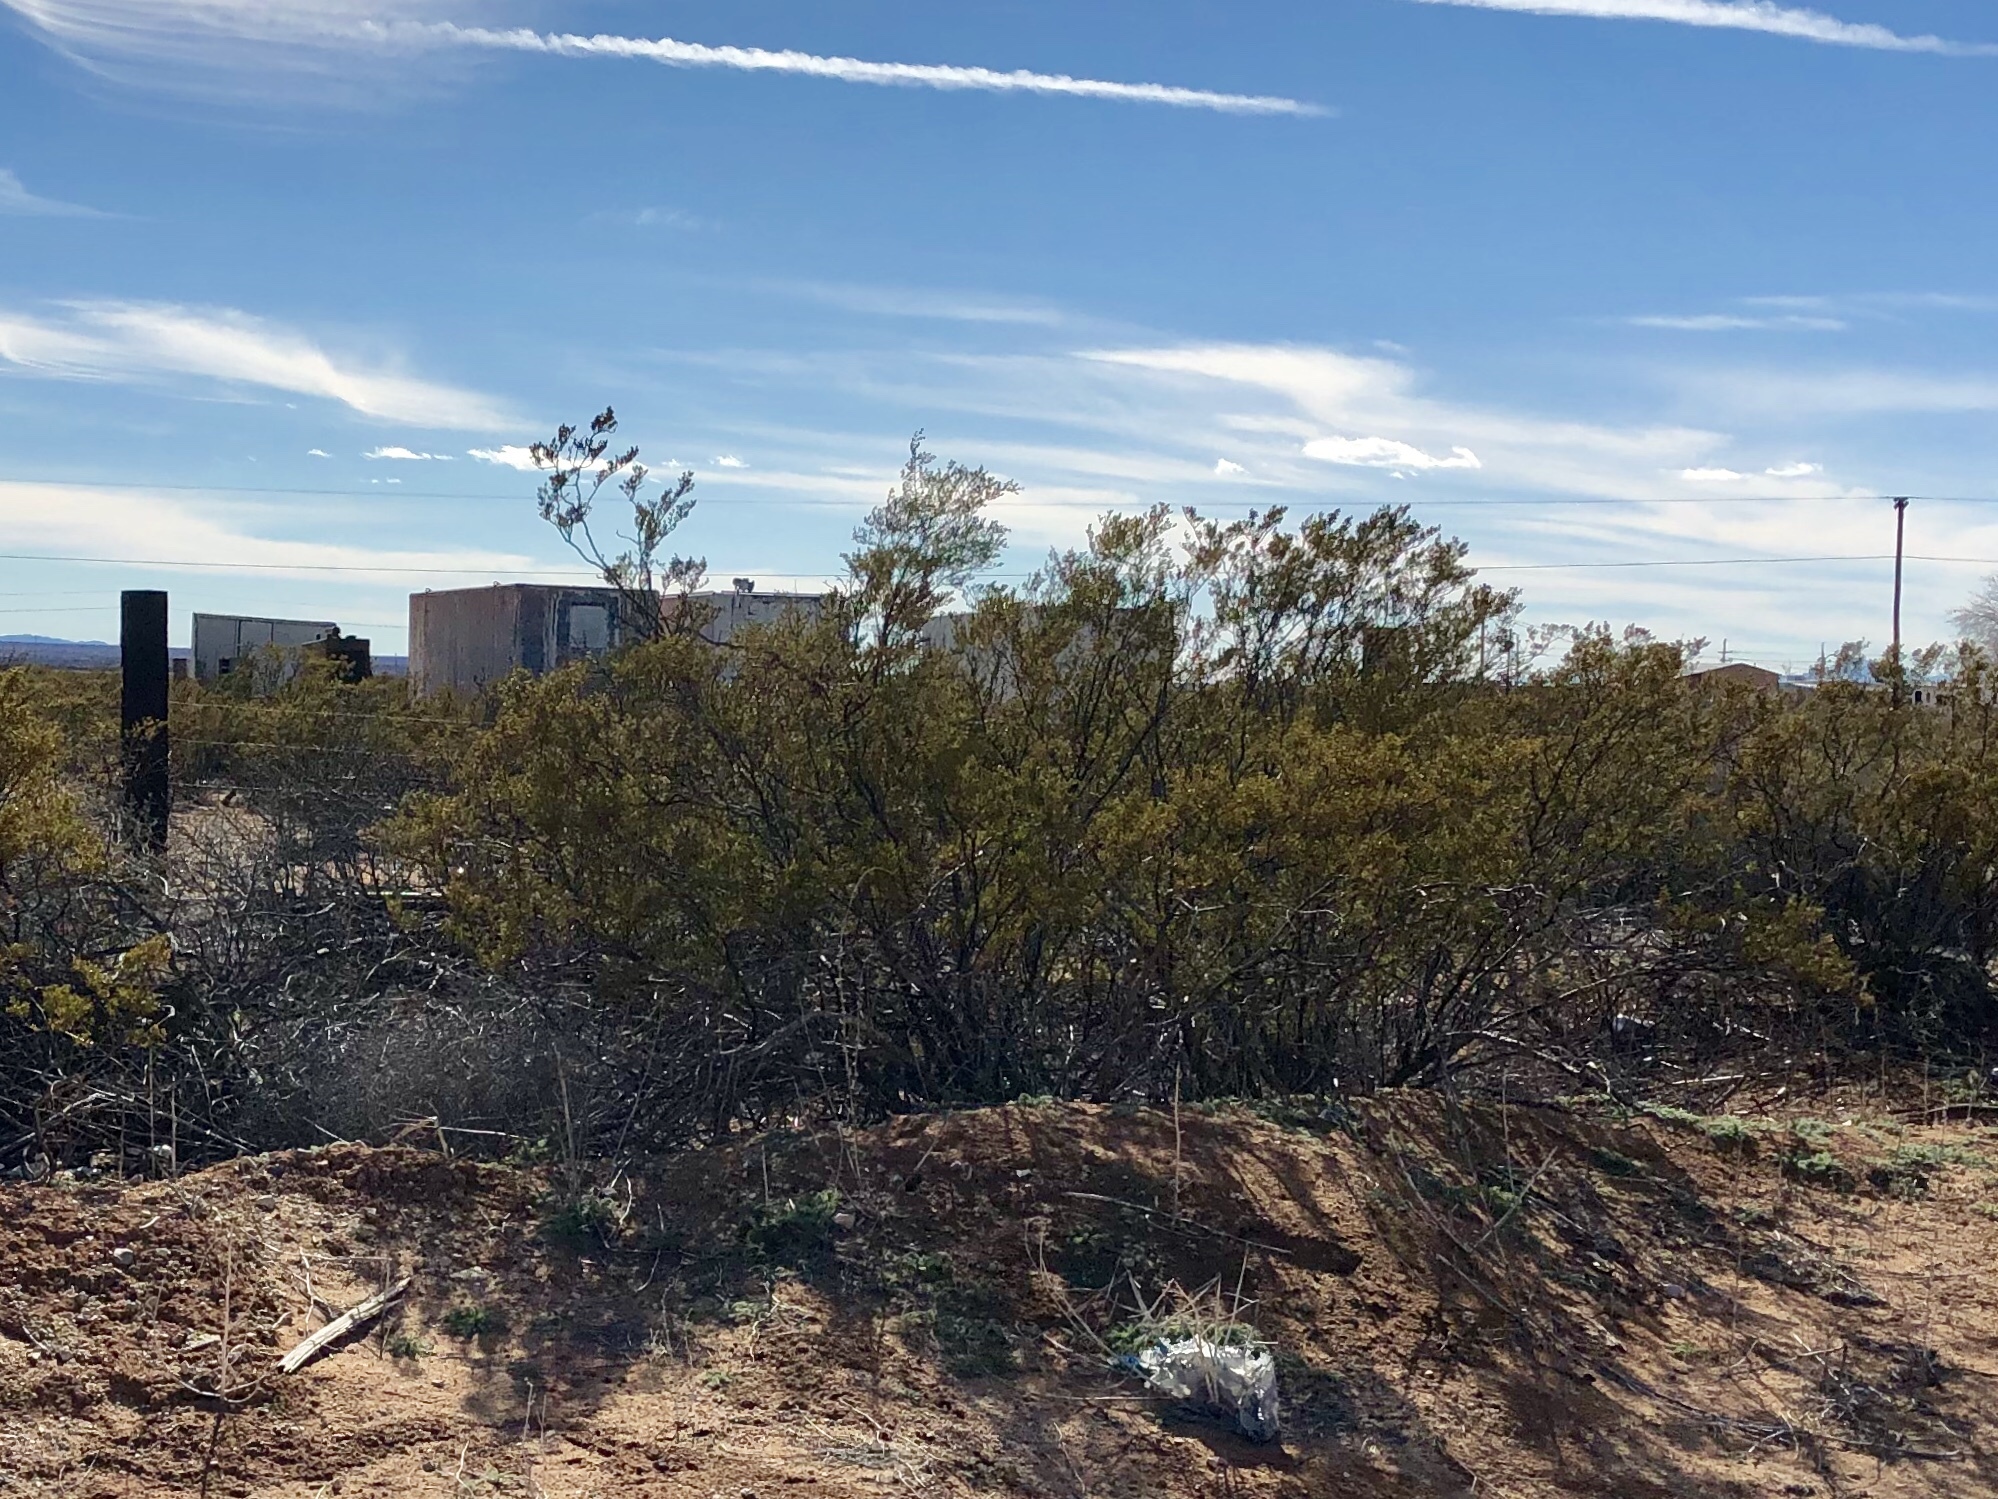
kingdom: Plantae
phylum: Tracheophyta
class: Magnoliopsida
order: Zygophyllales
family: Zygophyllaceae
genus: Larrea
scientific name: Larrea tridentata
